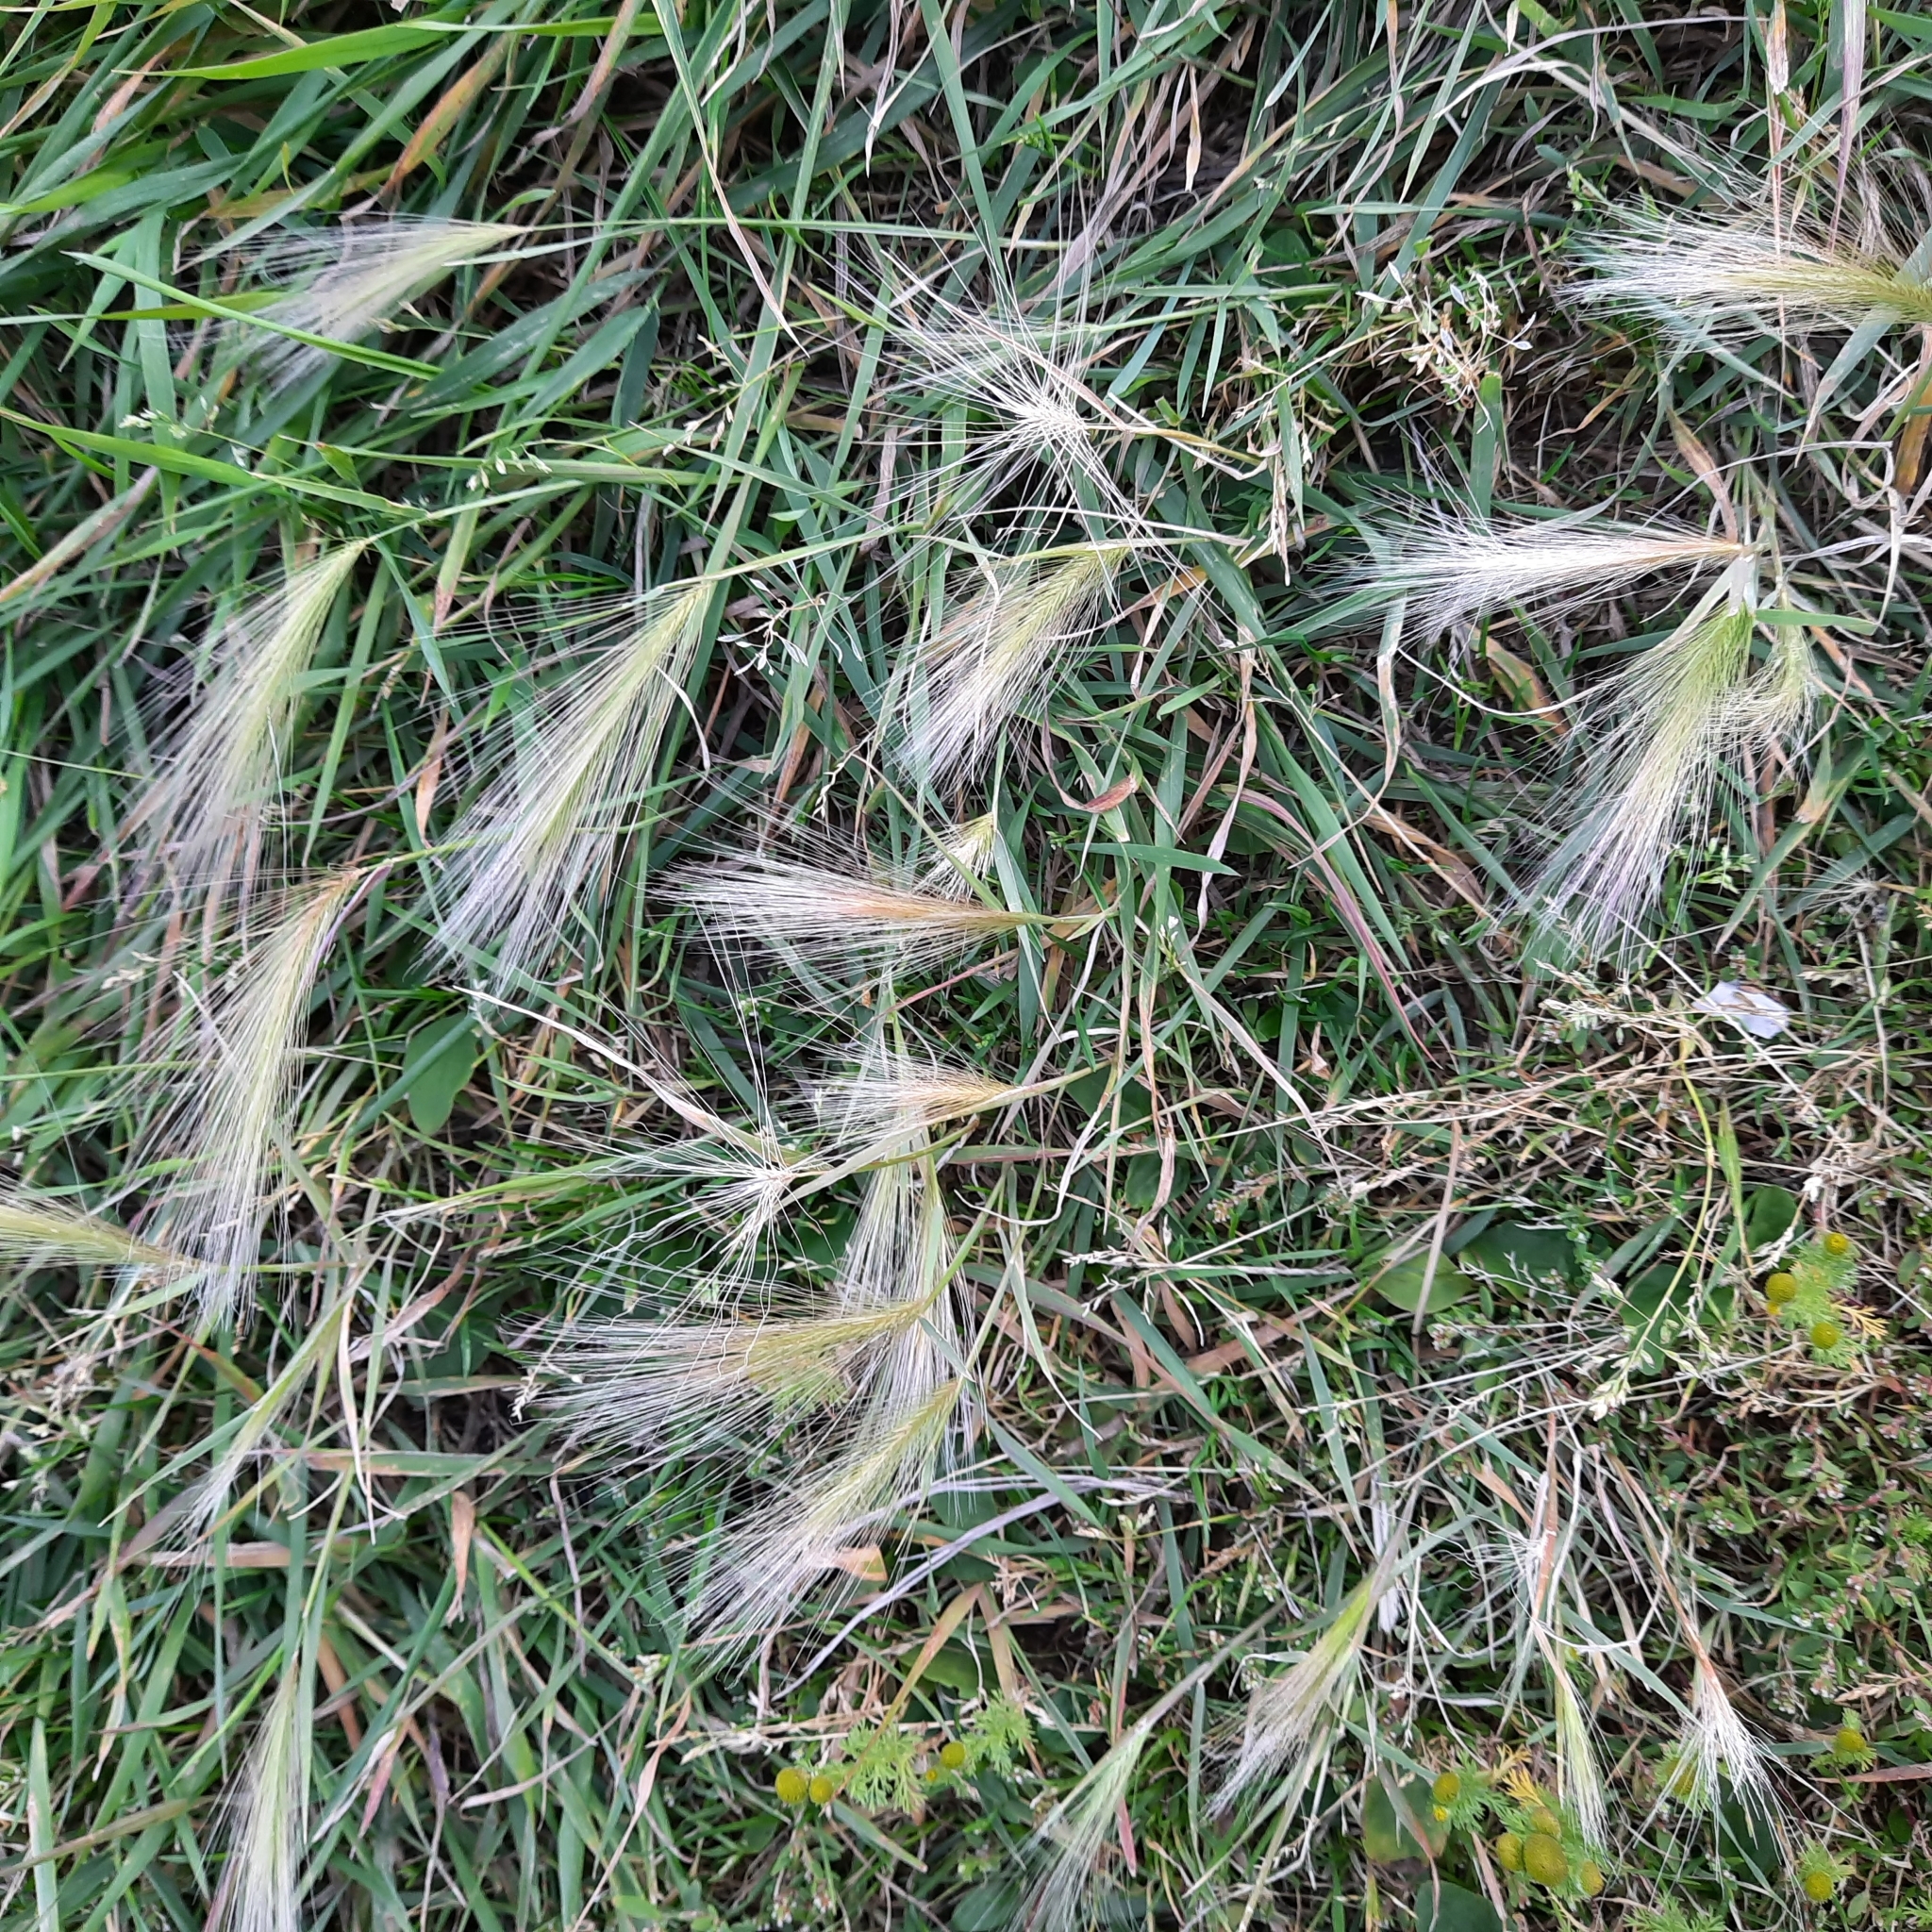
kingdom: Plantae
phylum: Tracheophyta
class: Liliopsida
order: Poales
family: Poaceae
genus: Hordeum
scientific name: Hordeum jubatum
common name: Foxtail barley
